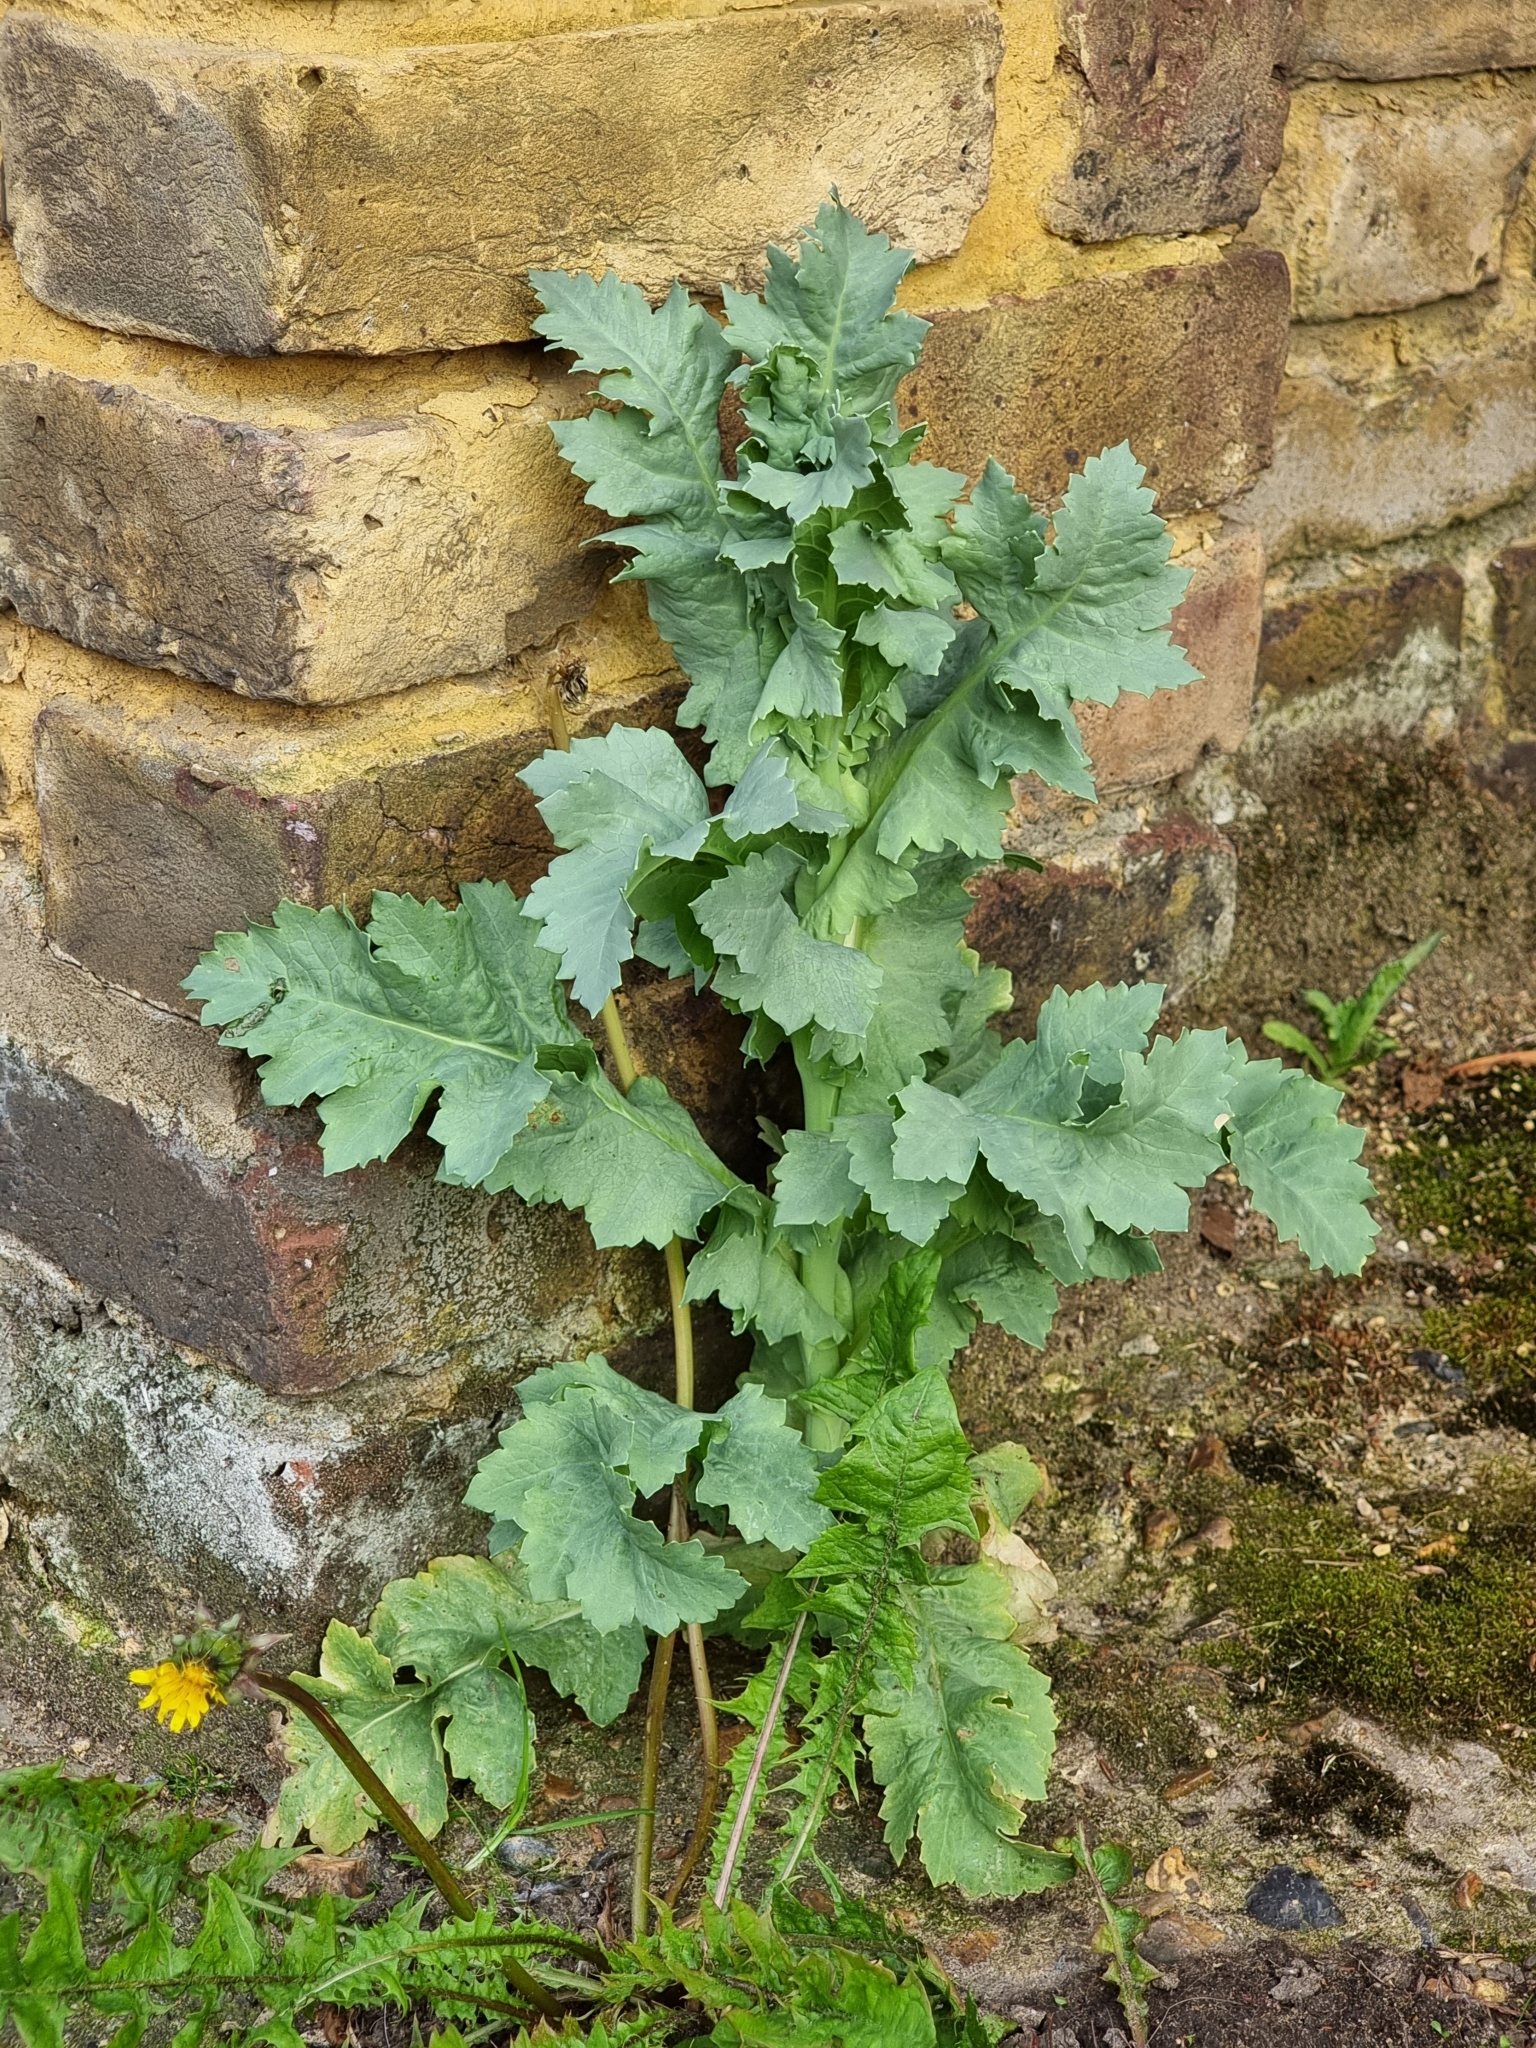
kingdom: Plantae
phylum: Tracheophyta
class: Magnoliopsida
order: Ranunculales
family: Papaveraceae
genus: Papaver
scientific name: Papaver somniferum
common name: Opium poppy
